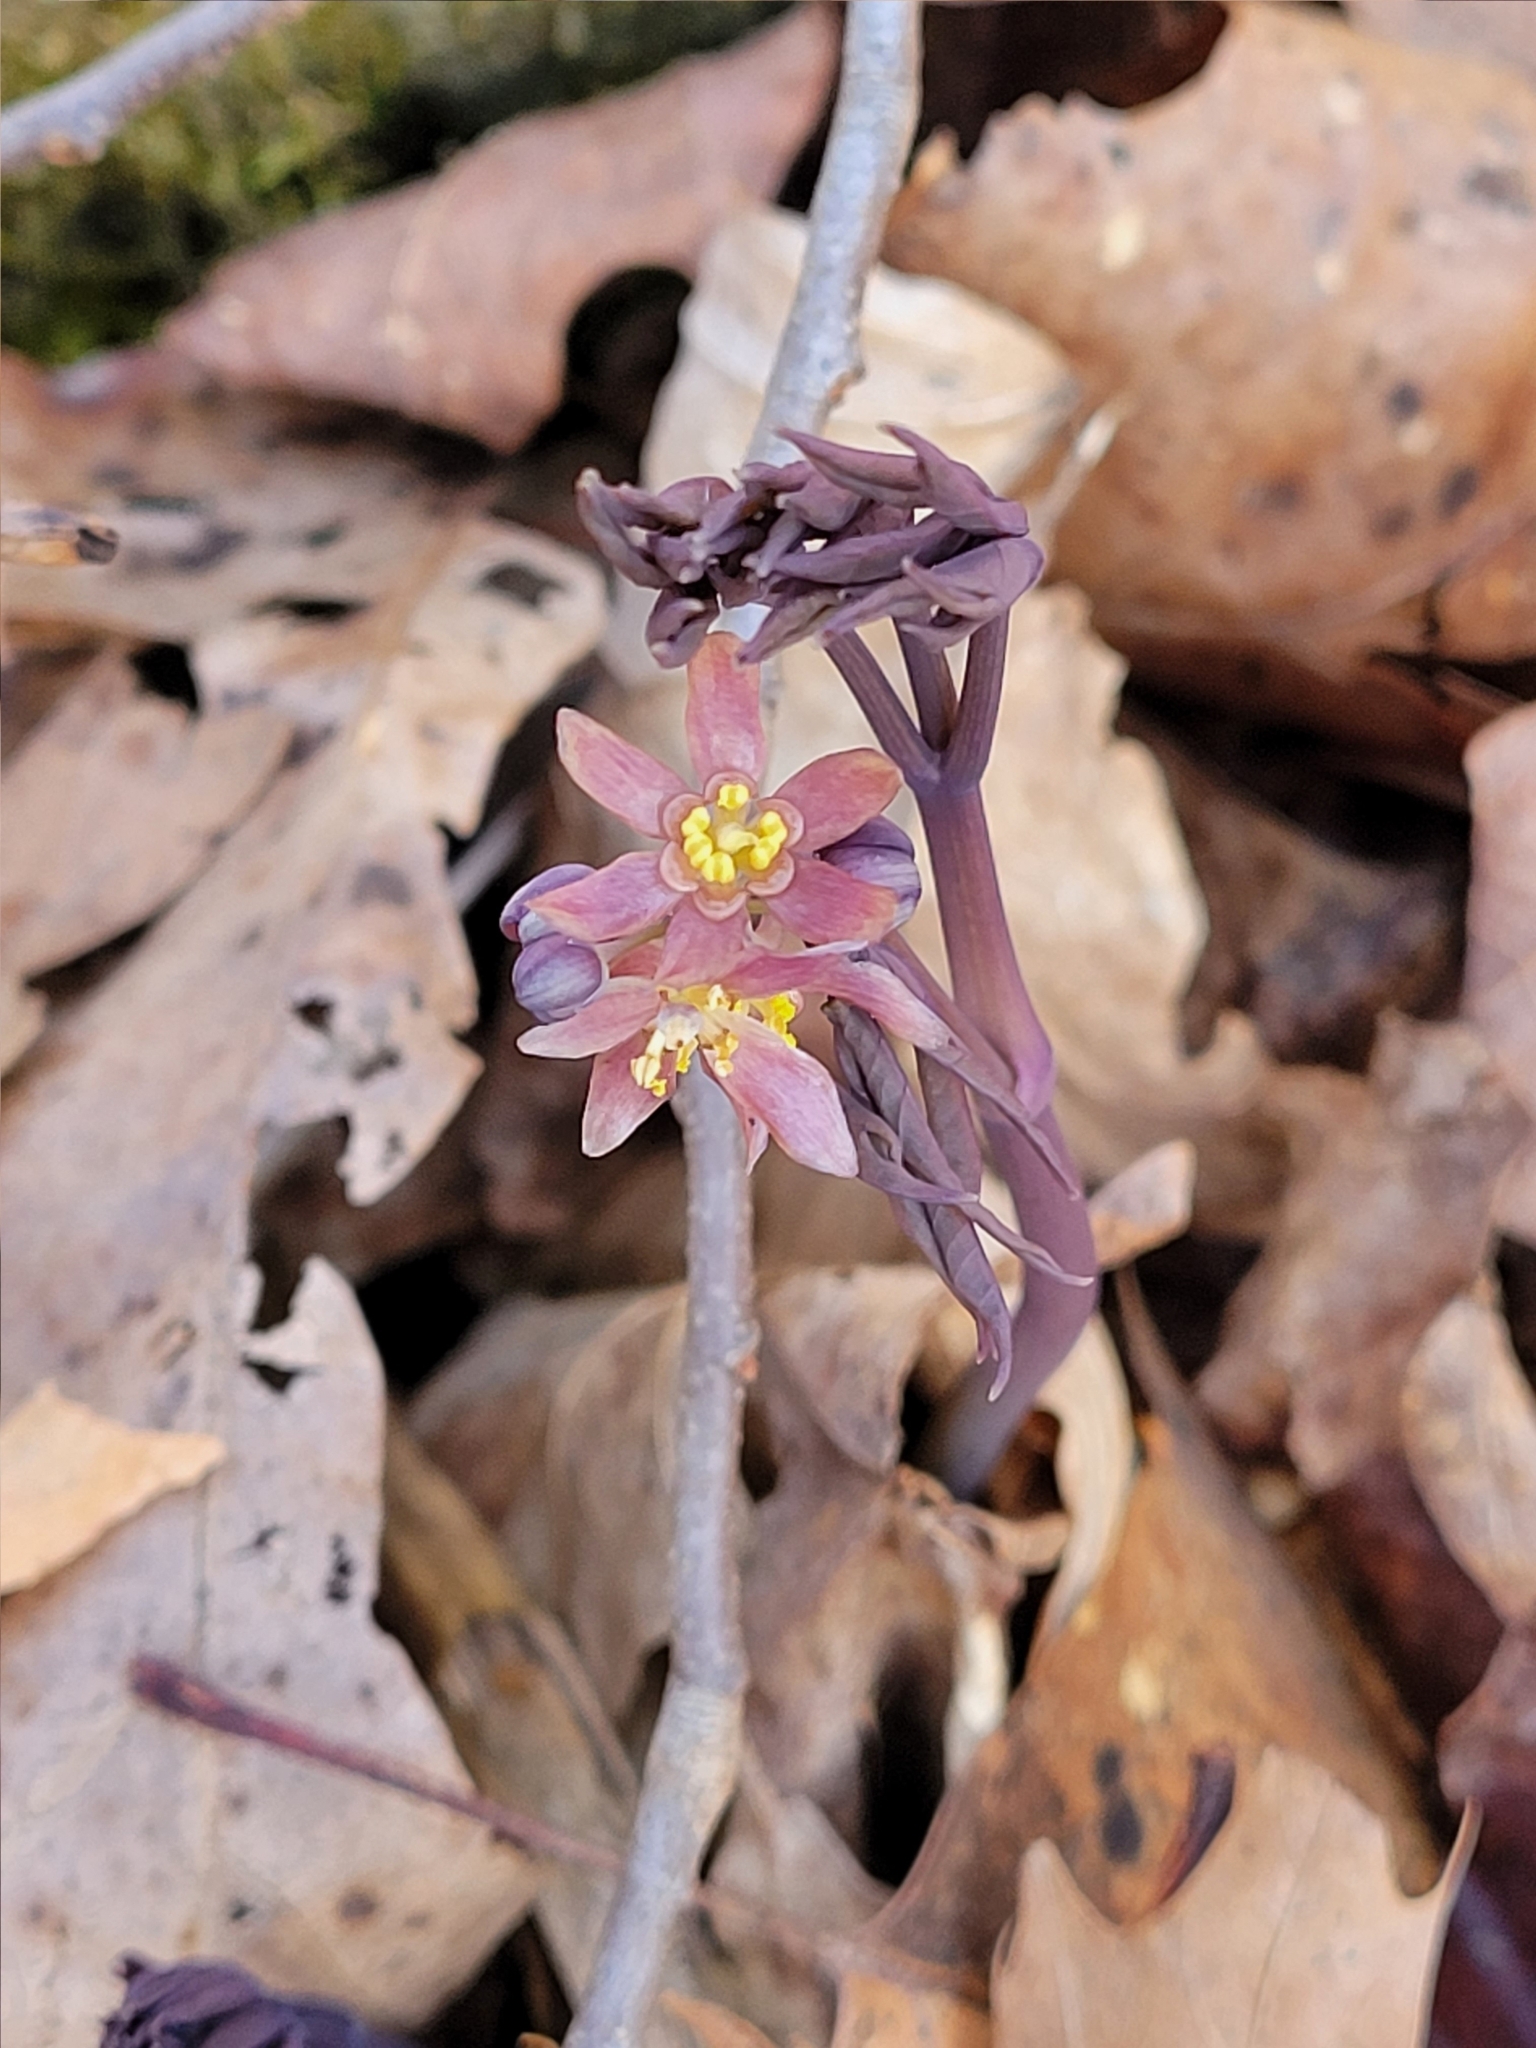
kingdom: Plantae
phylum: Tracheophyta
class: Magnoliopsida
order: Ranunculales
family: Berberidaceae
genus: Caulophyllum
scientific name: Caulophyllum giganteum
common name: Blue cohosh
